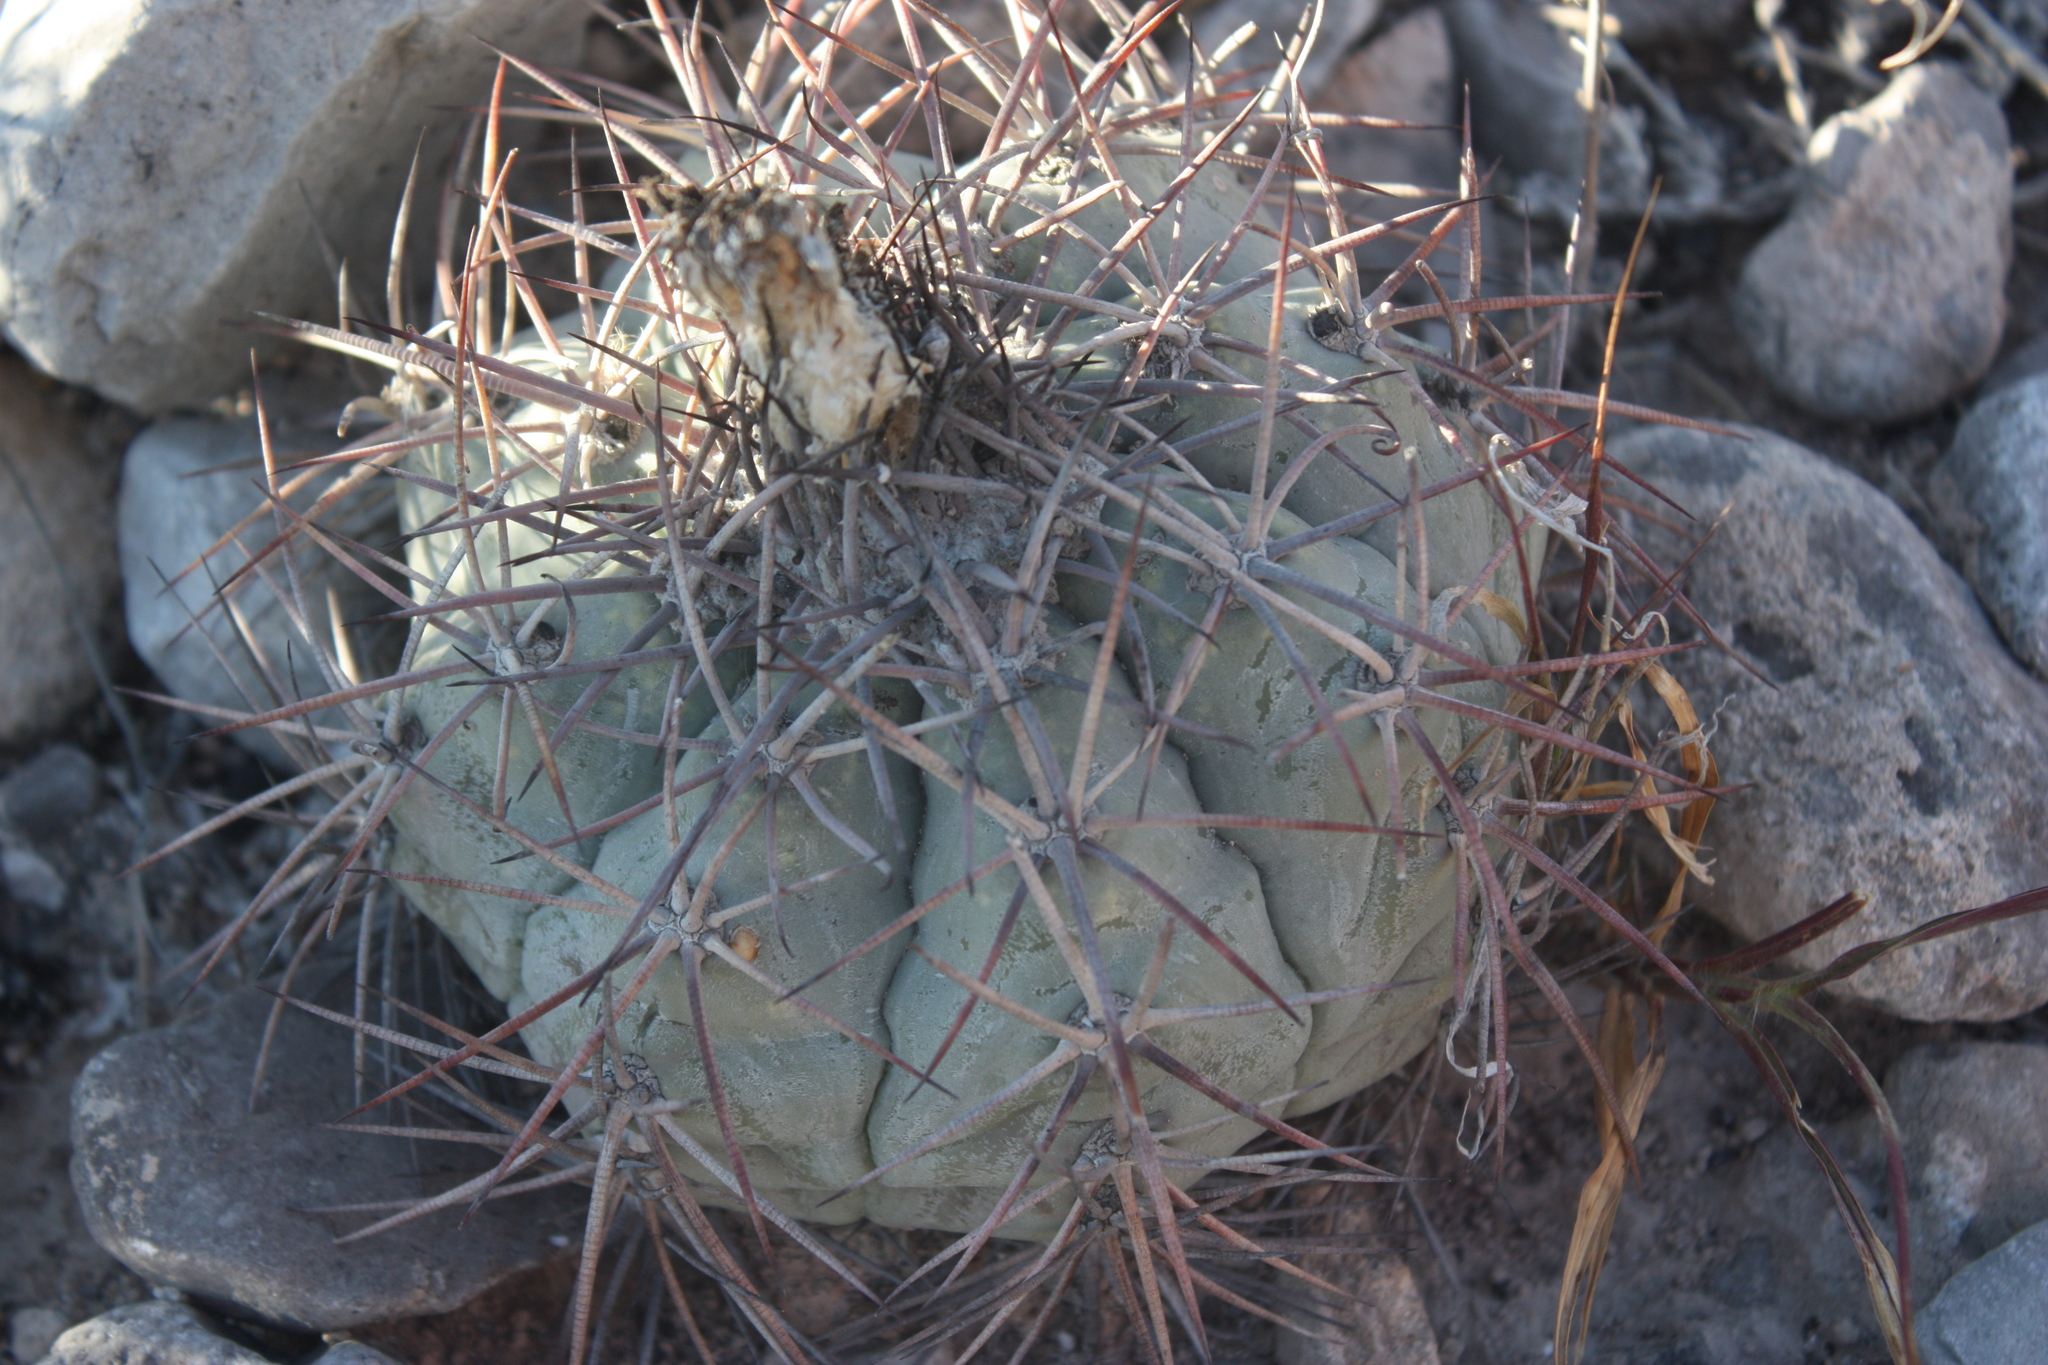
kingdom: Plantae
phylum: Tracheophyta
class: Magnoliopsida
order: Caryophyllales
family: Cactaceae
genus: Echinocactus
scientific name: Echinocactus horizonthalonius
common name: Devilshead
